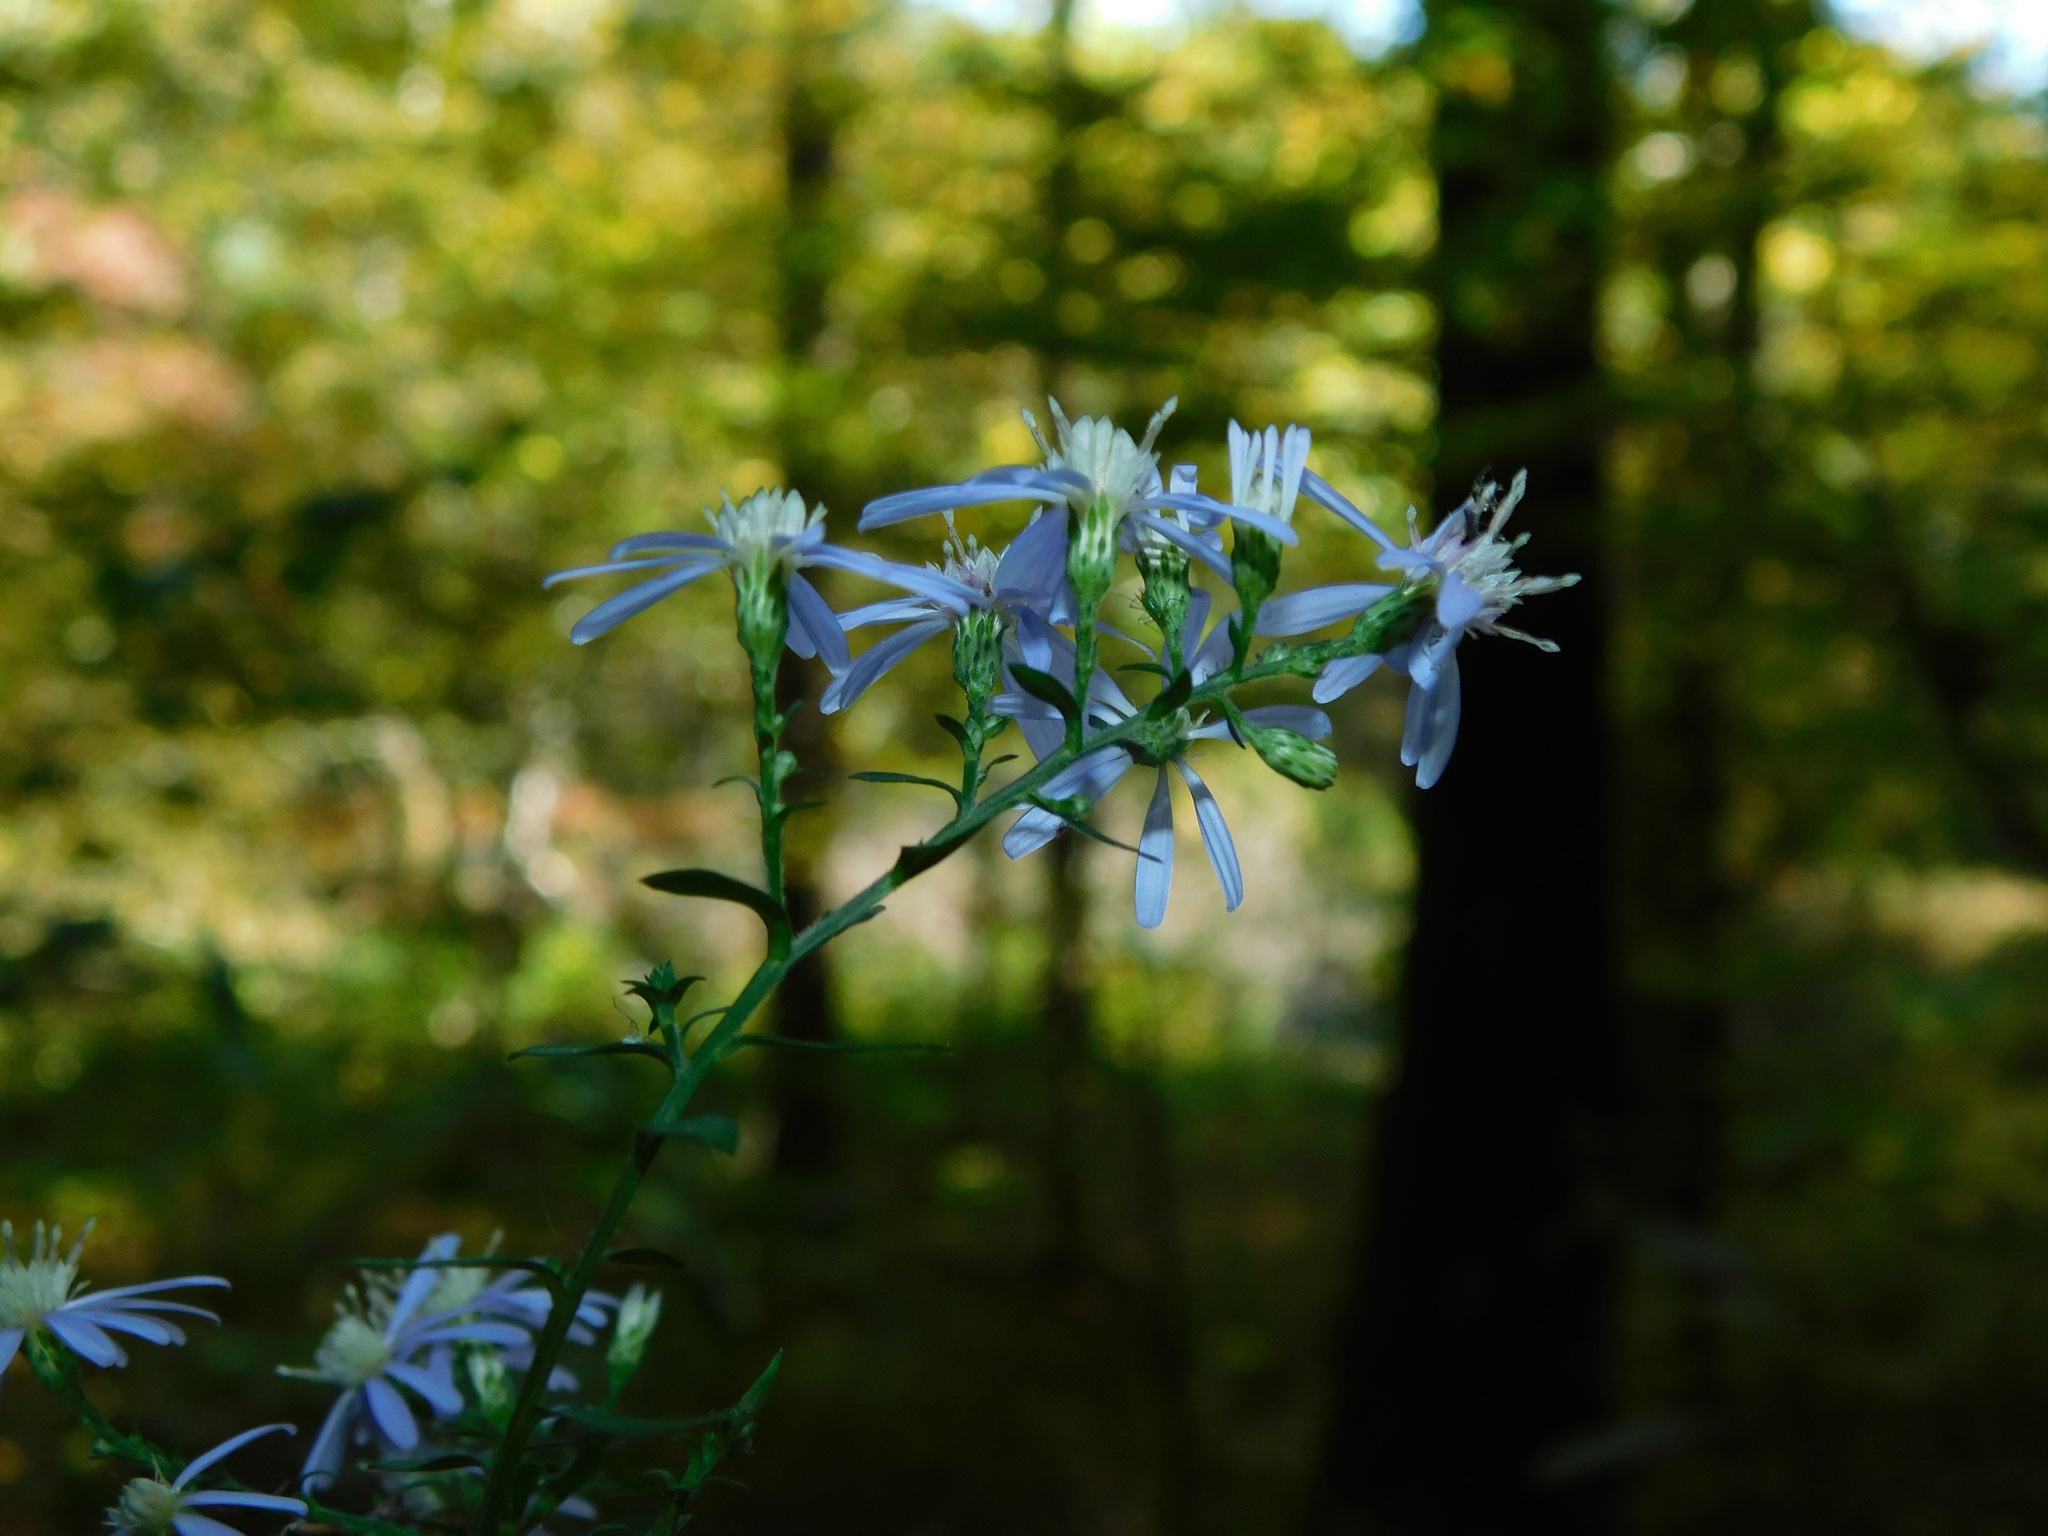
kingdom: Plantae
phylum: Tracheophyta
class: Magnoliopsida
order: Asterales
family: Asteraceae
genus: Symphyotrichum
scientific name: Symphyotrichum cordifolium
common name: Beeweed
